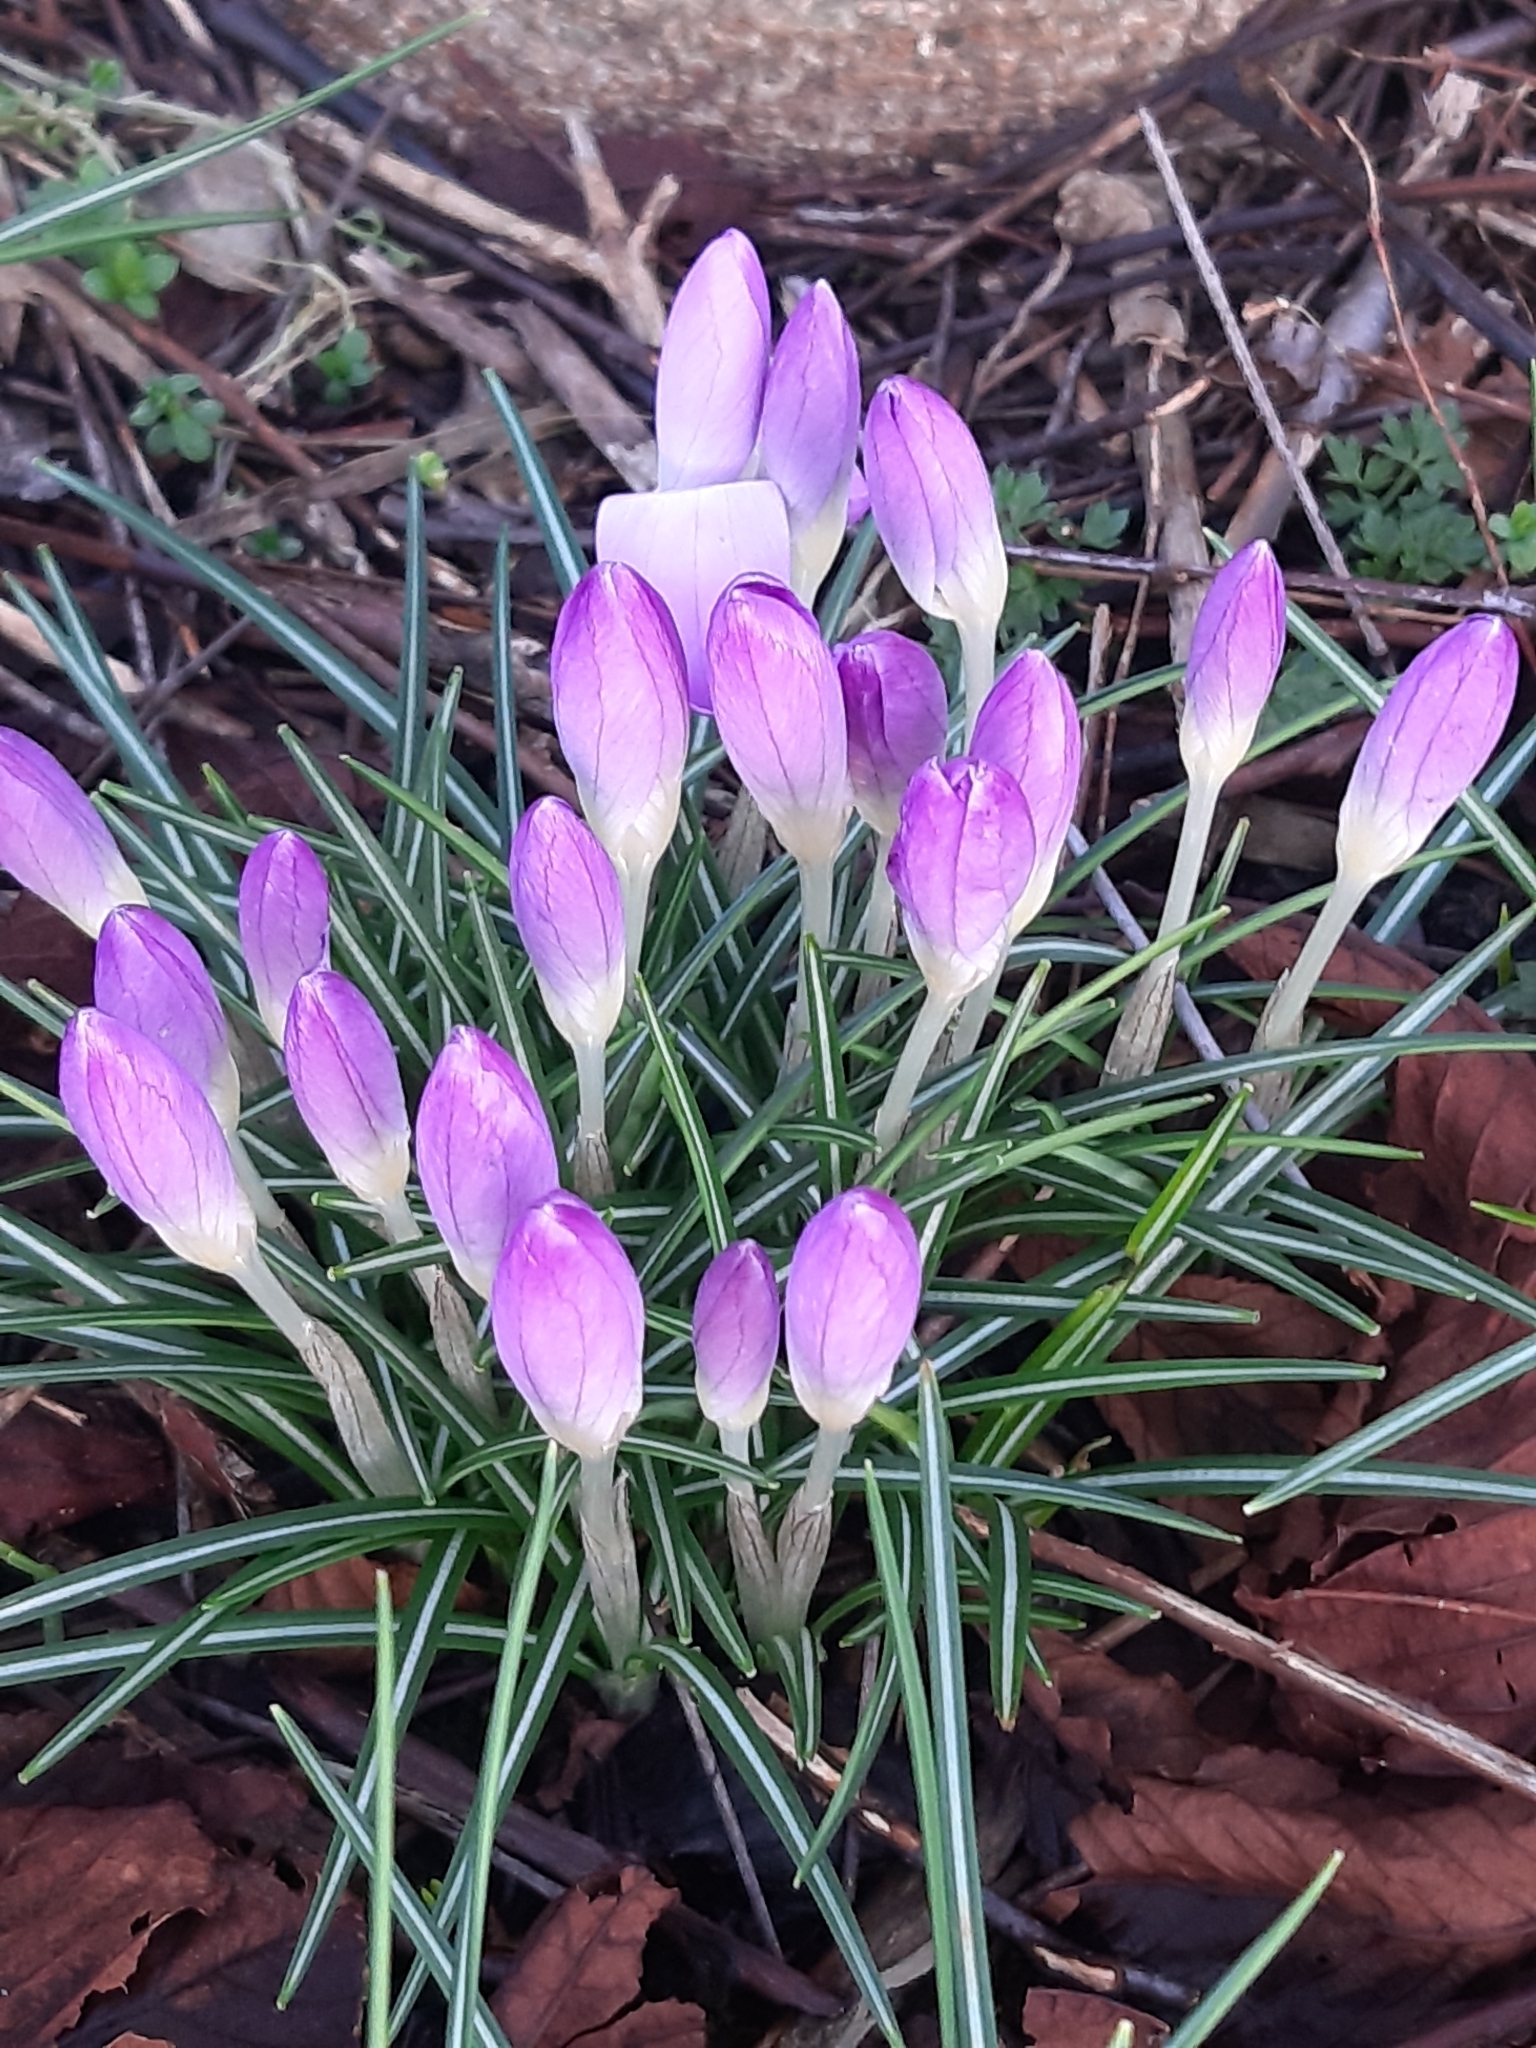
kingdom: Plantae
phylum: Tracheophyta
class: Liliopsida
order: Asparagales
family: Iridaceae
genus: Crocus
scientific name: Crocus tommasinianus
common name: Early crocus
